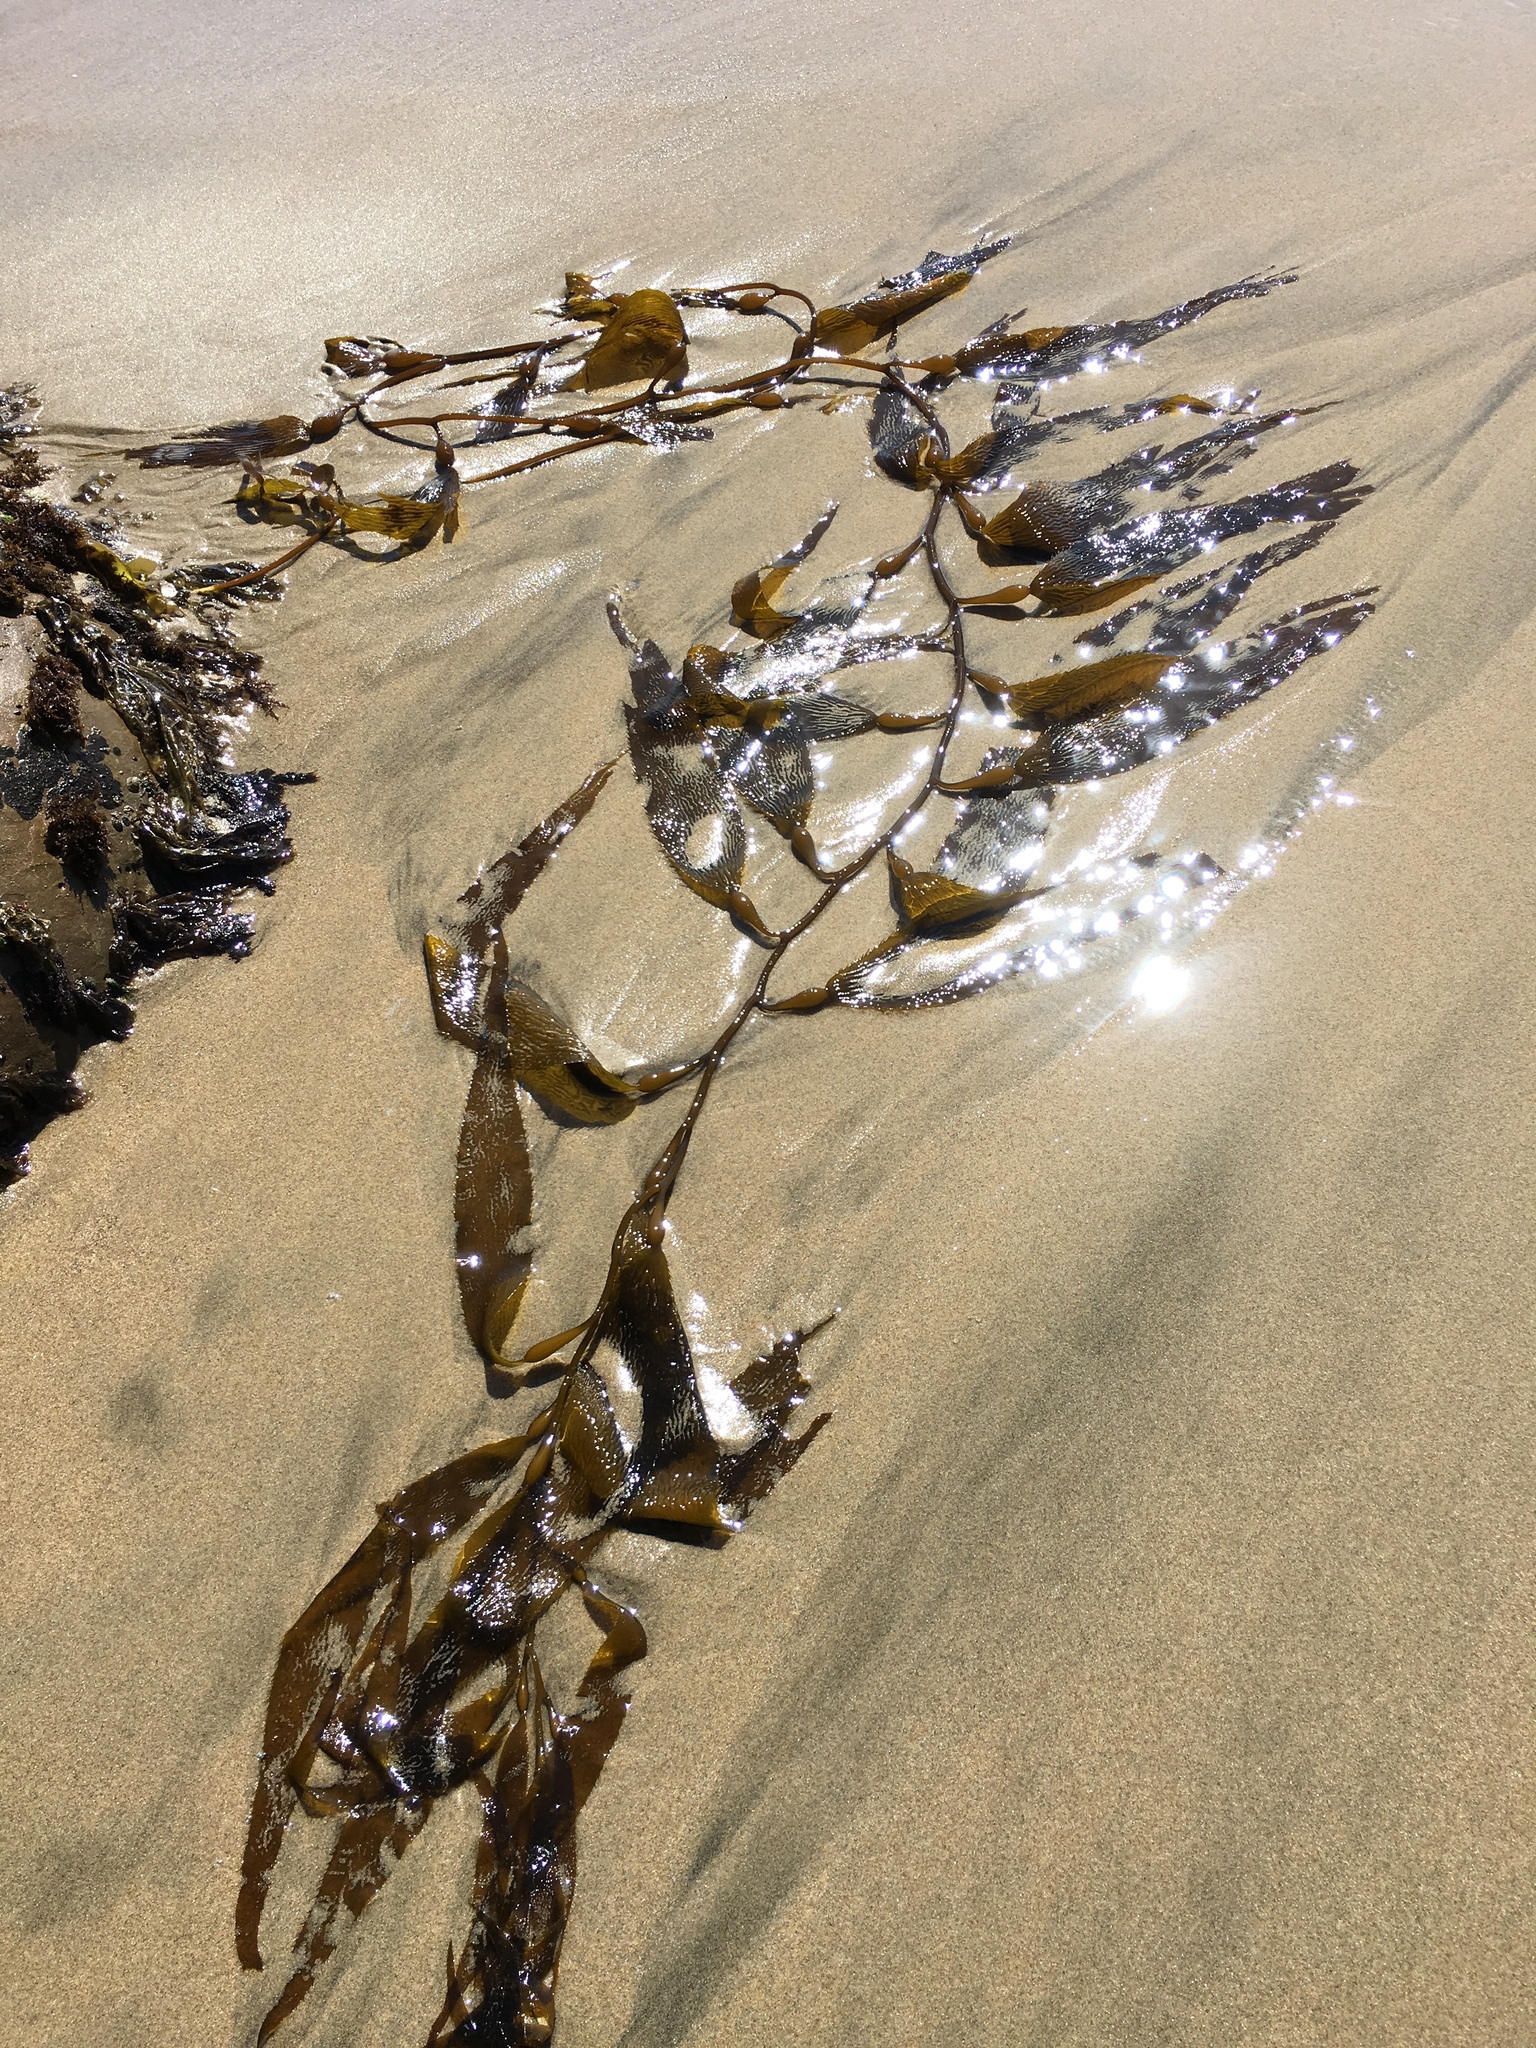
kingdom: Chromista
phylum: Ochrophyta
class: Phaeophyceae
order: Laminariales
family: Laminariaceae
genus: Macrocystis
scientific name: Macrocystis pyrifera
